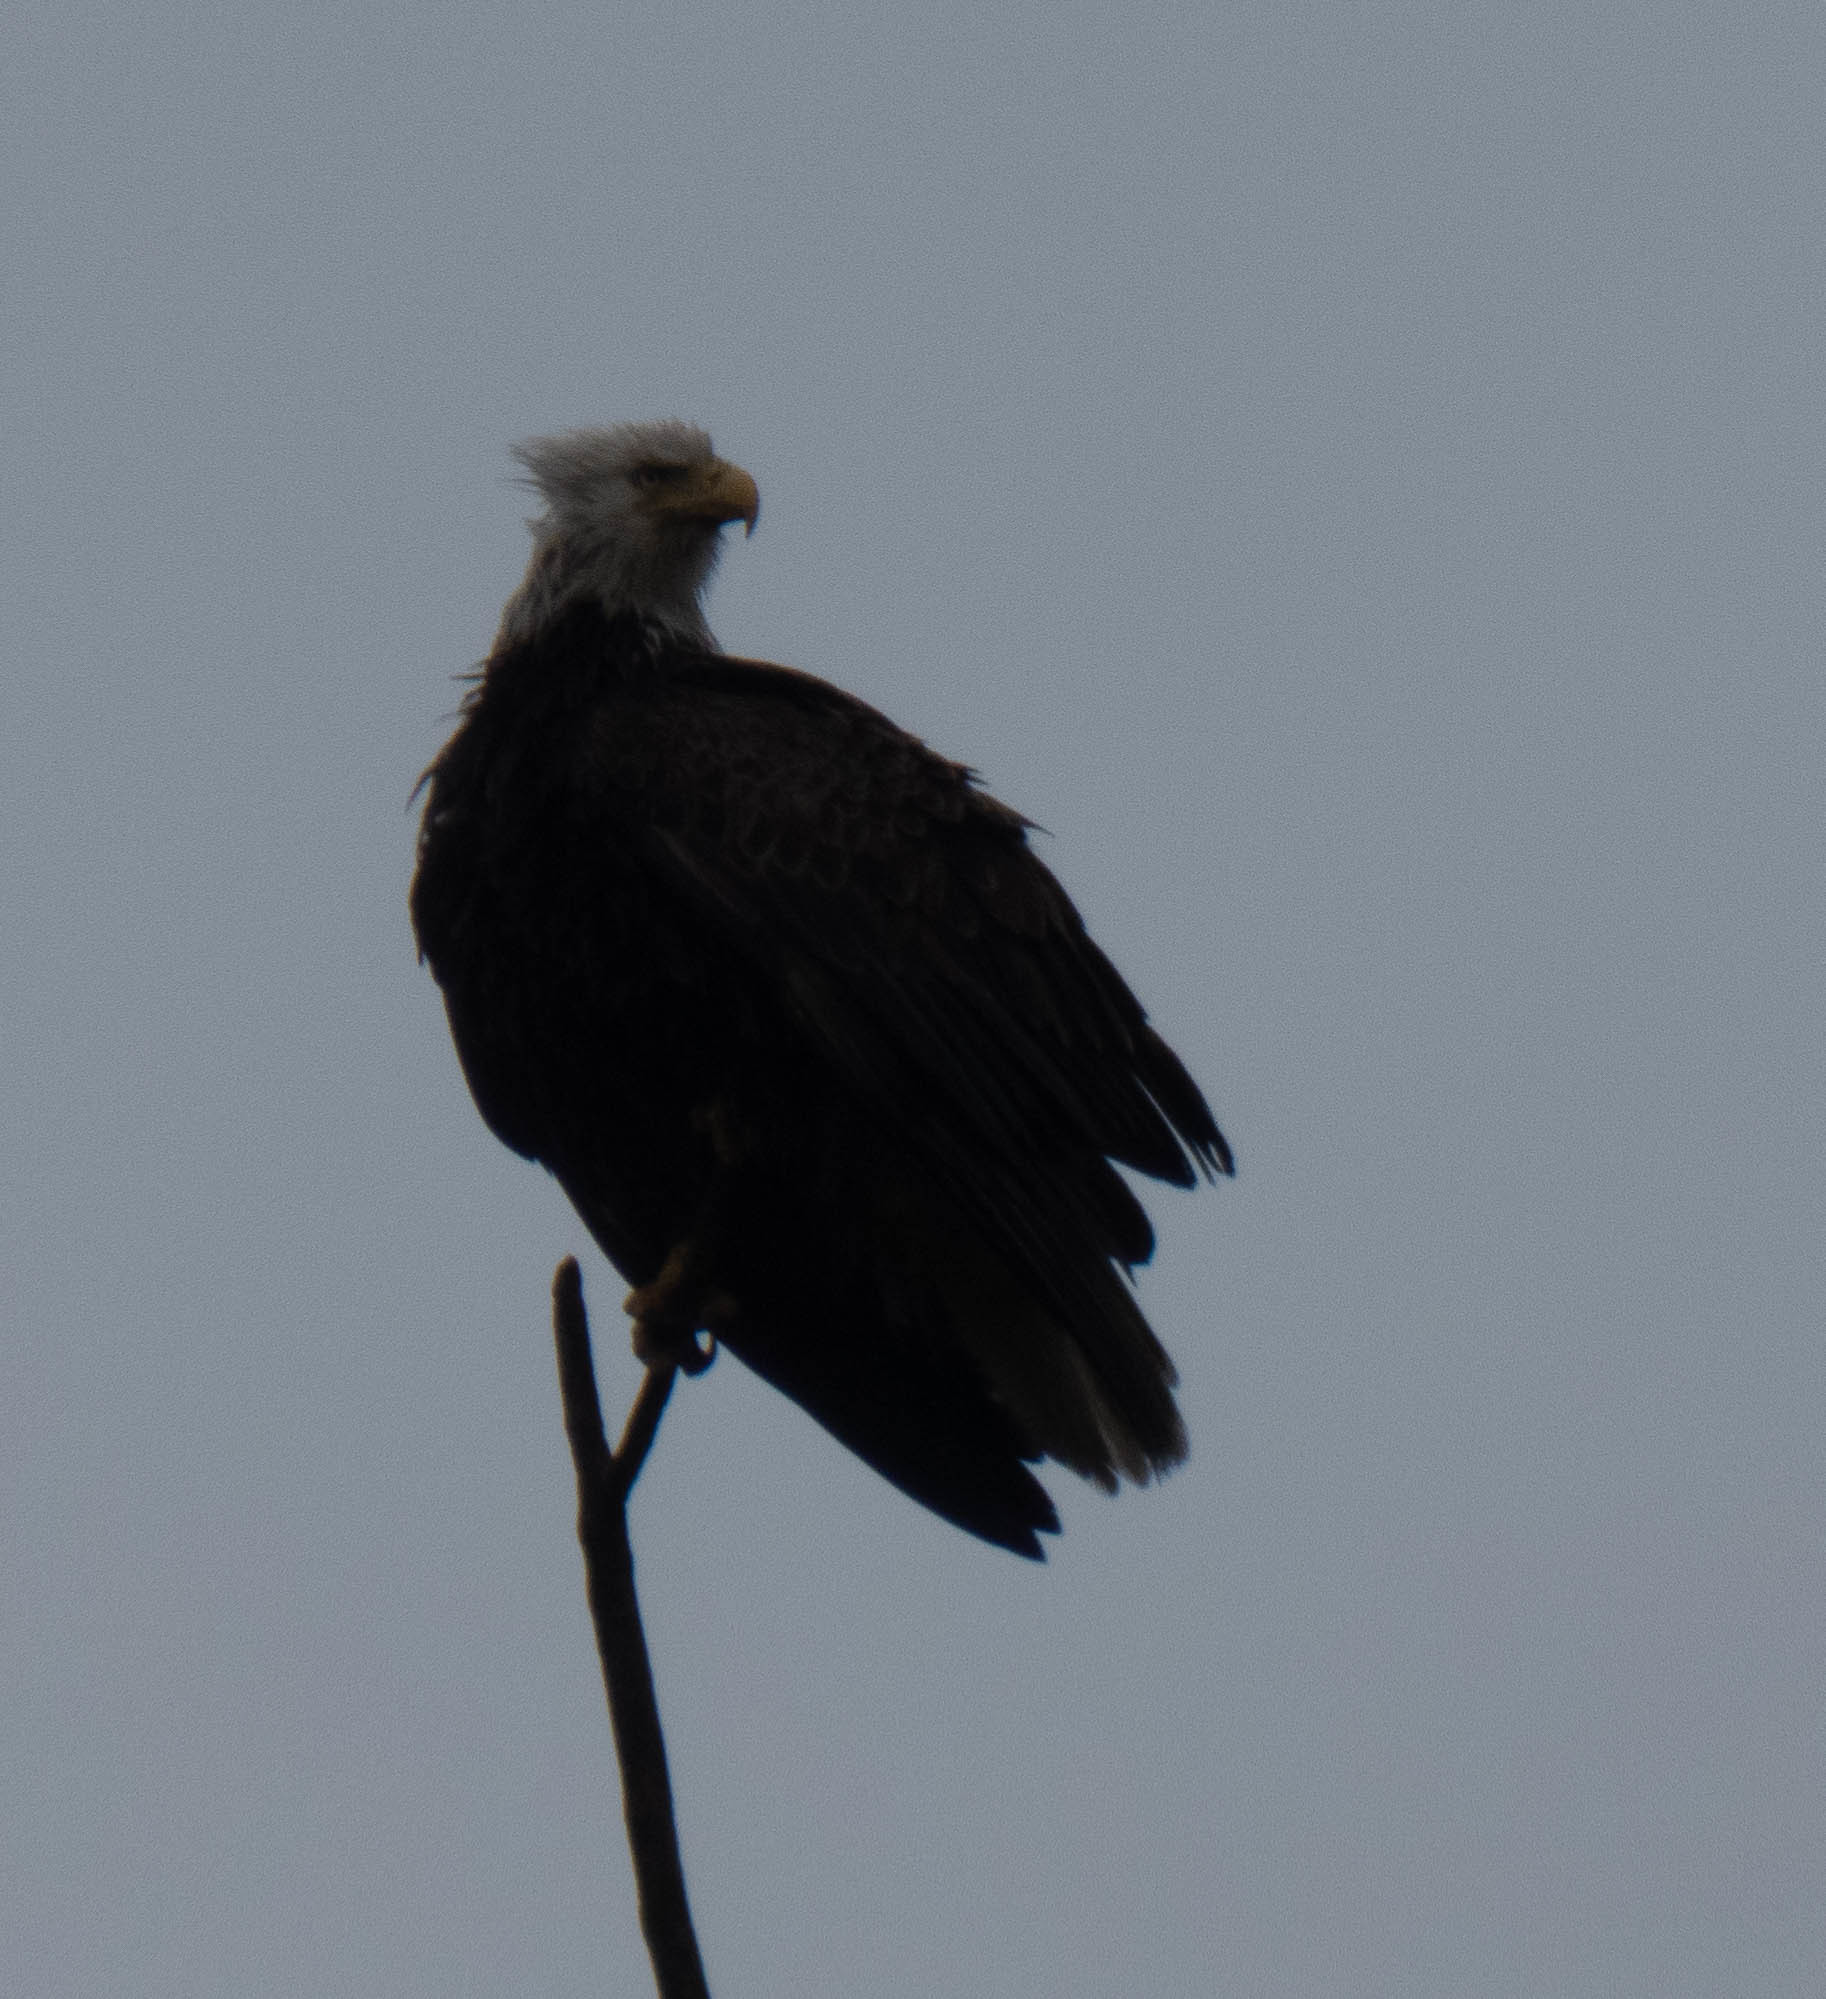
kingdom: Animalia
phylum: Chordata
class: Aves
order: Accipitriformes
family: Accipitridae
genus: Haliaeetus
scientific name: Haliaeetus leucocephalus
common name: Bald eagle
